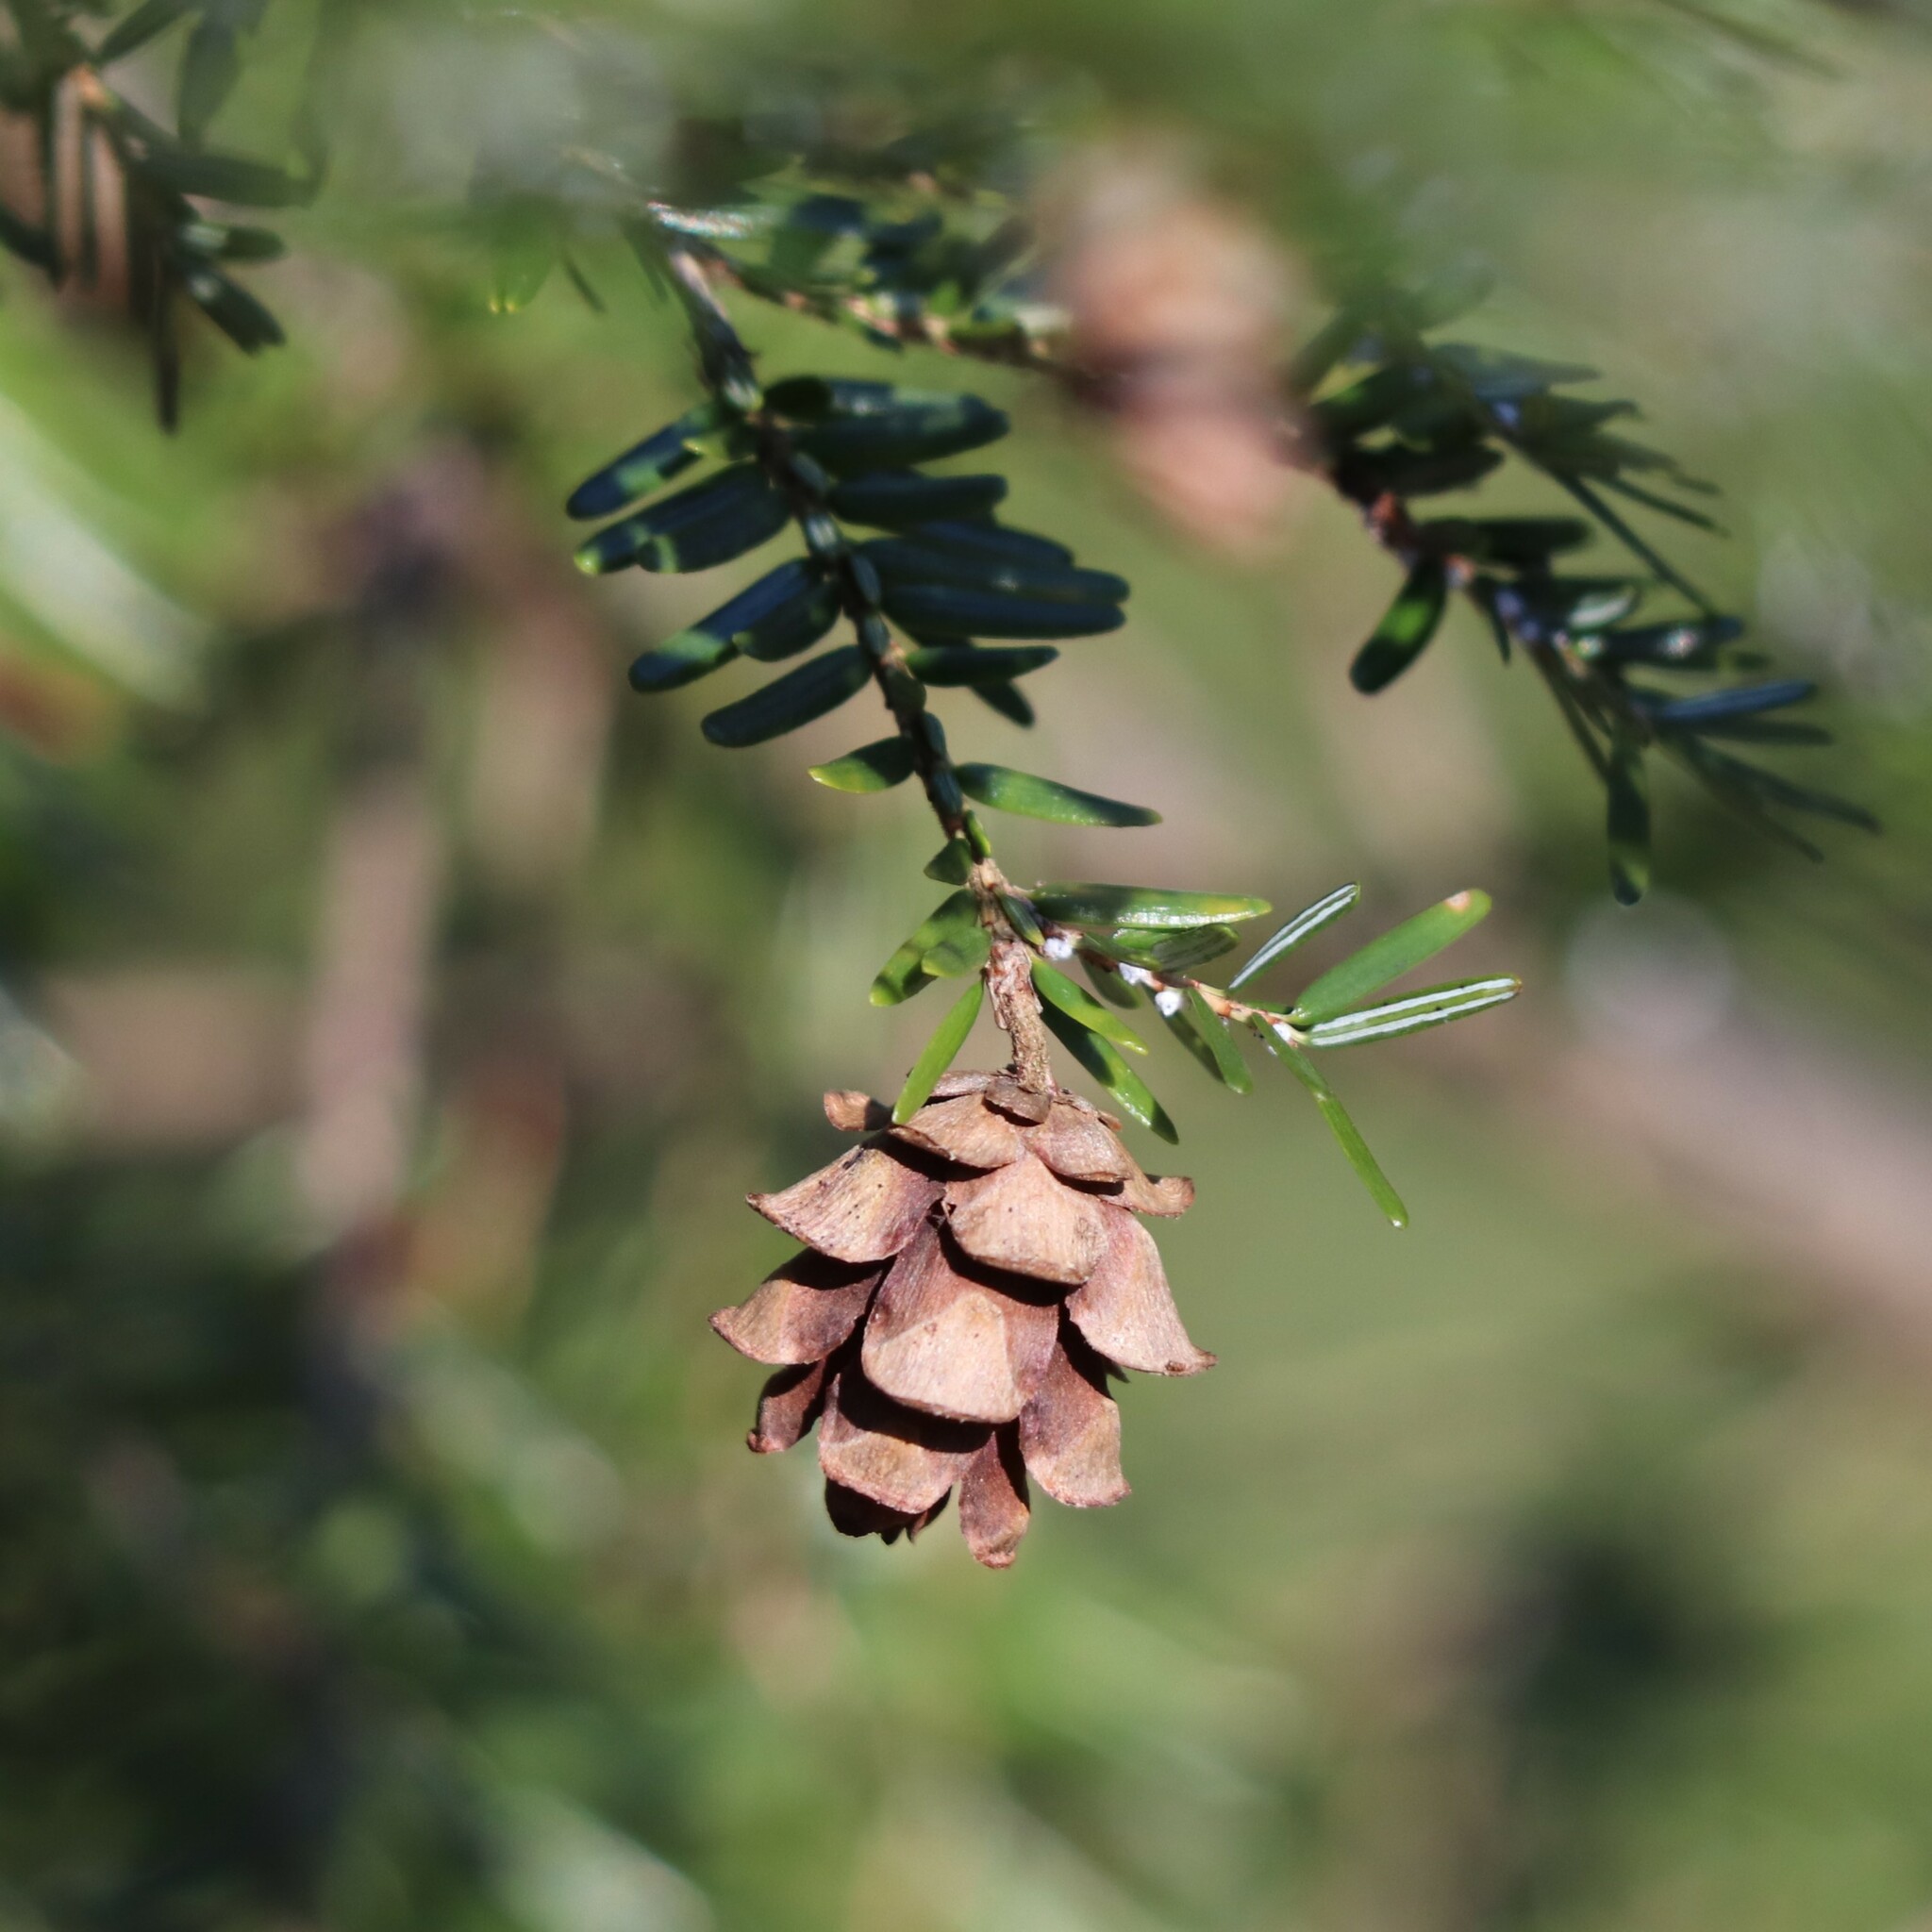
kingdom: Plantae
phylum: Tracheophyta
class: Pinopsida
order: Pinales
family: Pinaceae
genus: Tsuga
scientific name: Tsuga canadensis
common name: Eastern hemlock
